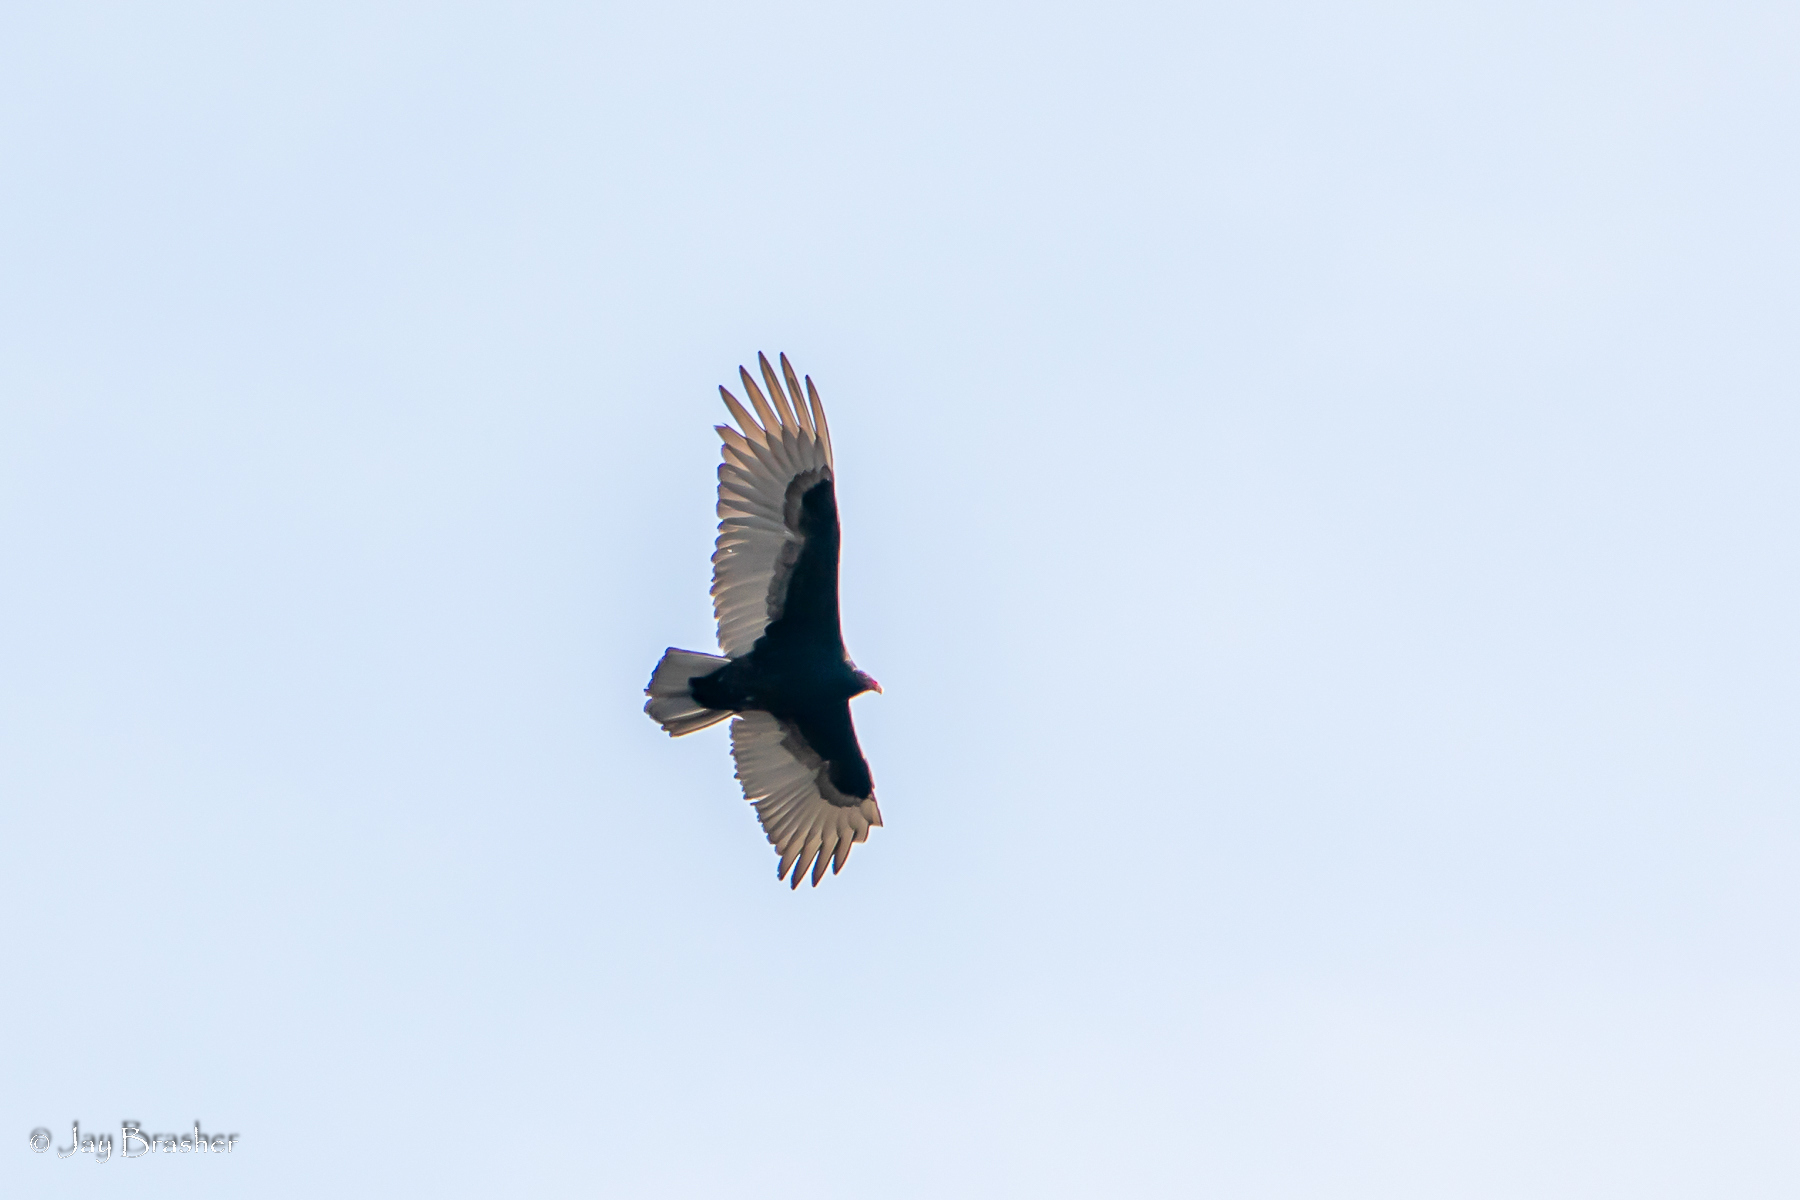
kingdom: Animalia
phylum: Chordata
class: Aves
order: Accipitriformes
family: Cathartidae
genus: Cathartes
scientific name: Cathartes aura
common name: Turkey vulture
